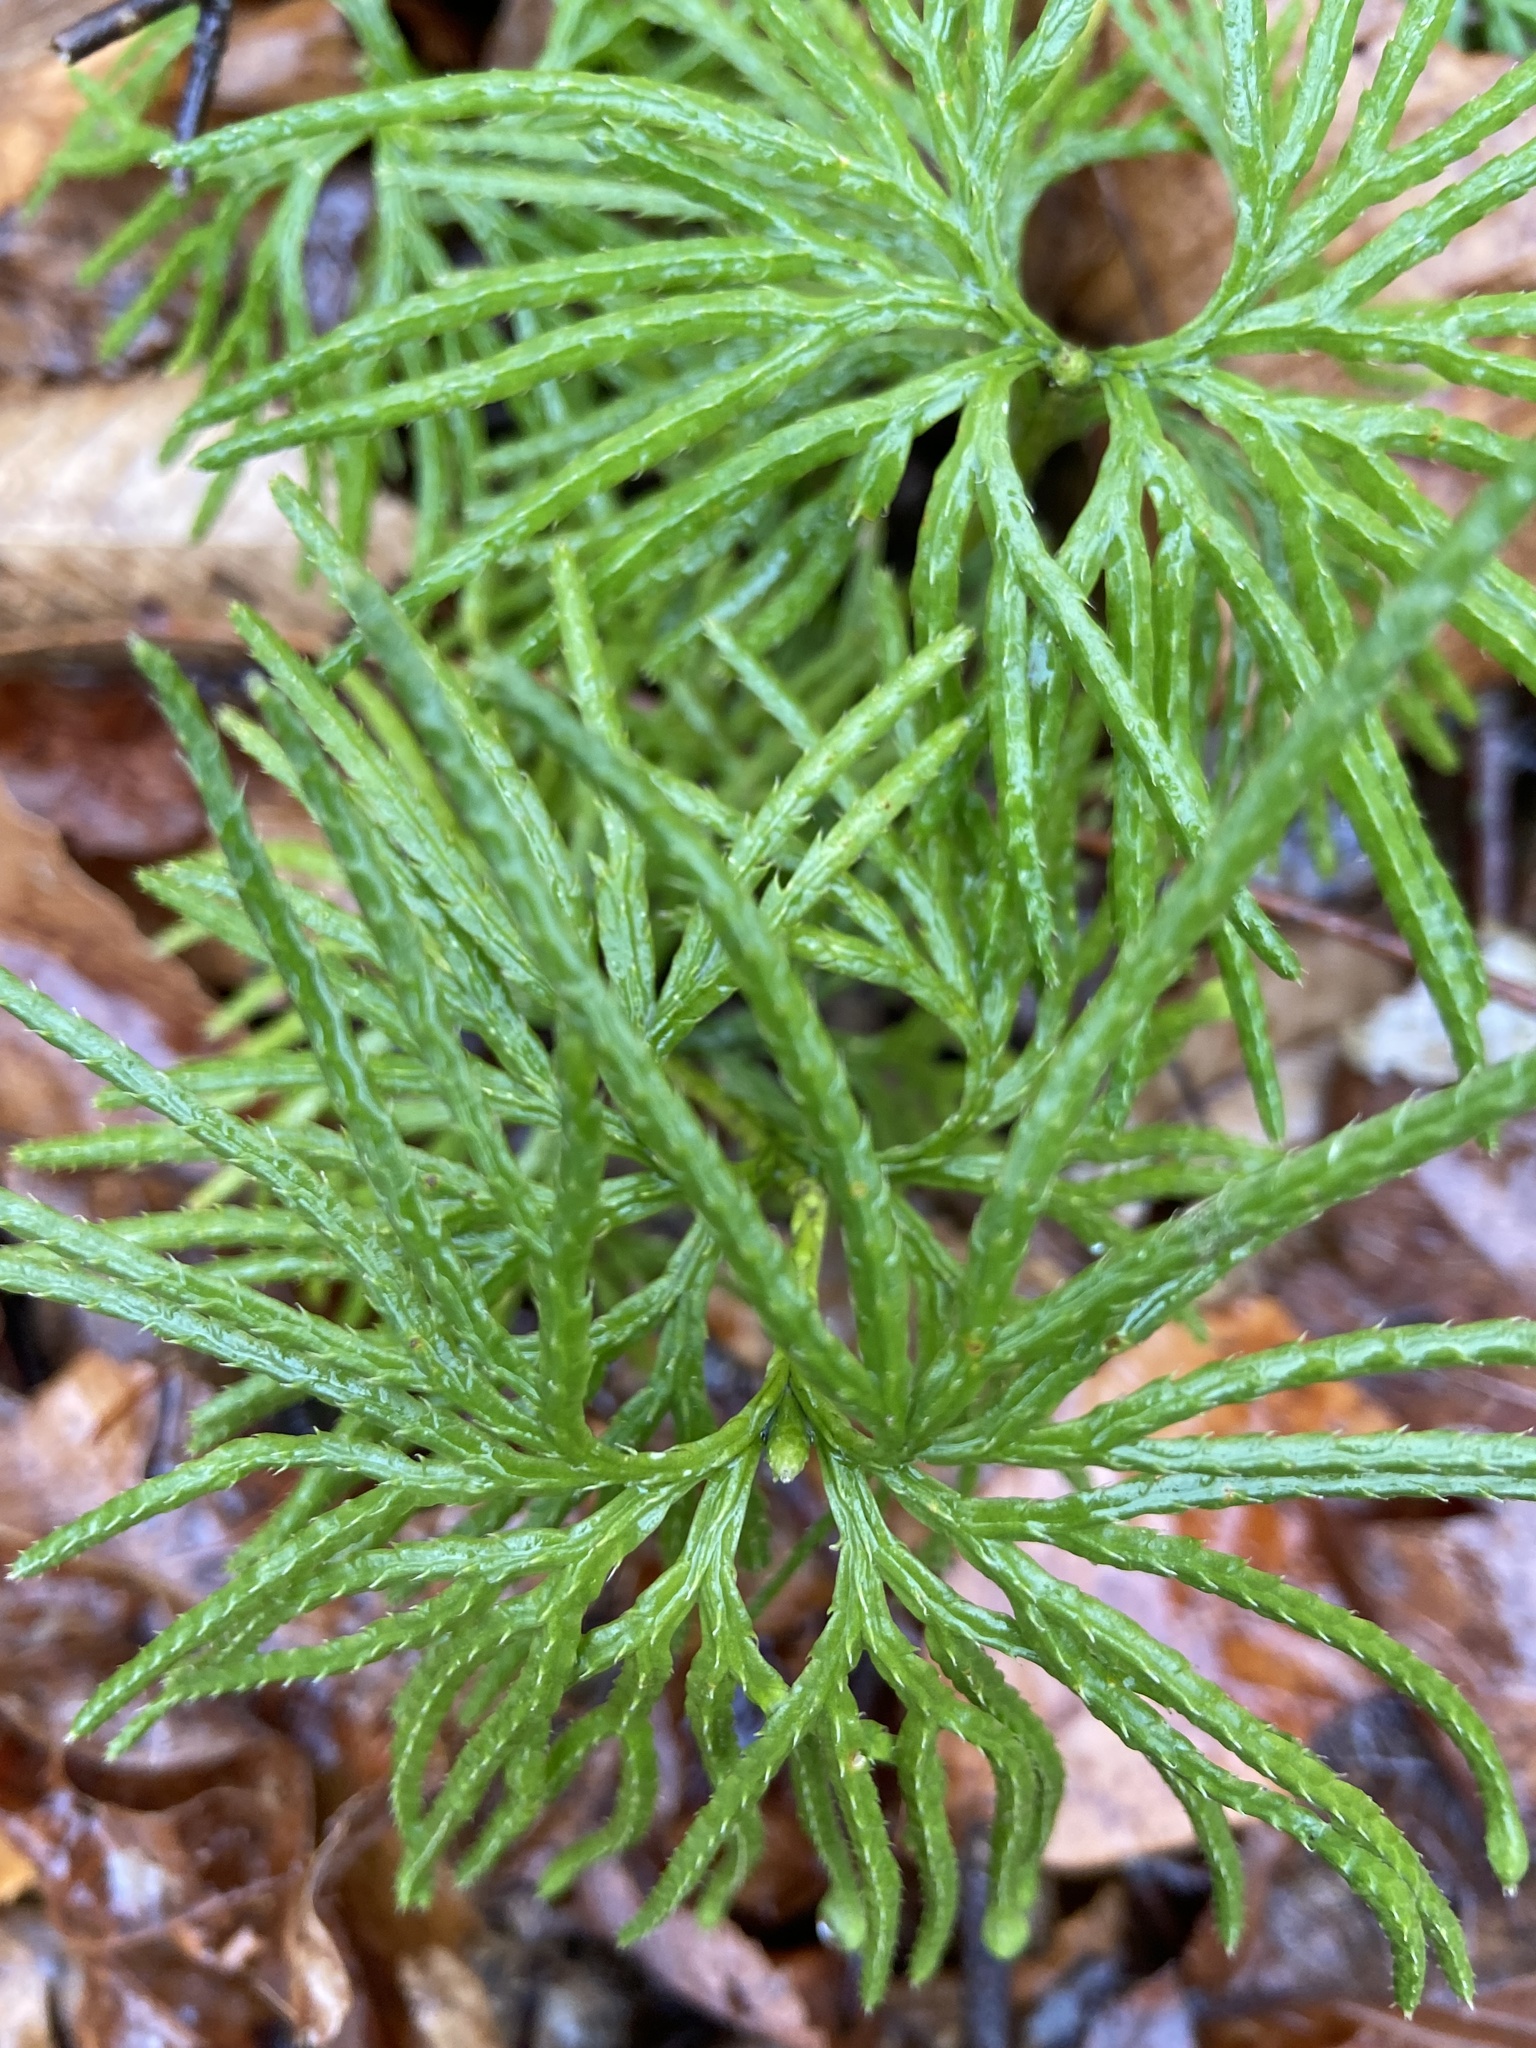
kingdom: Plantae
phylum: Tracheophyta
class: Lycopodiopsida
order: Lycopodiales
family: Lycopodiaceae
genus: Diphasiastrum
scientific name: Diphasiastrum digitatum
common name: Southern running-pine
